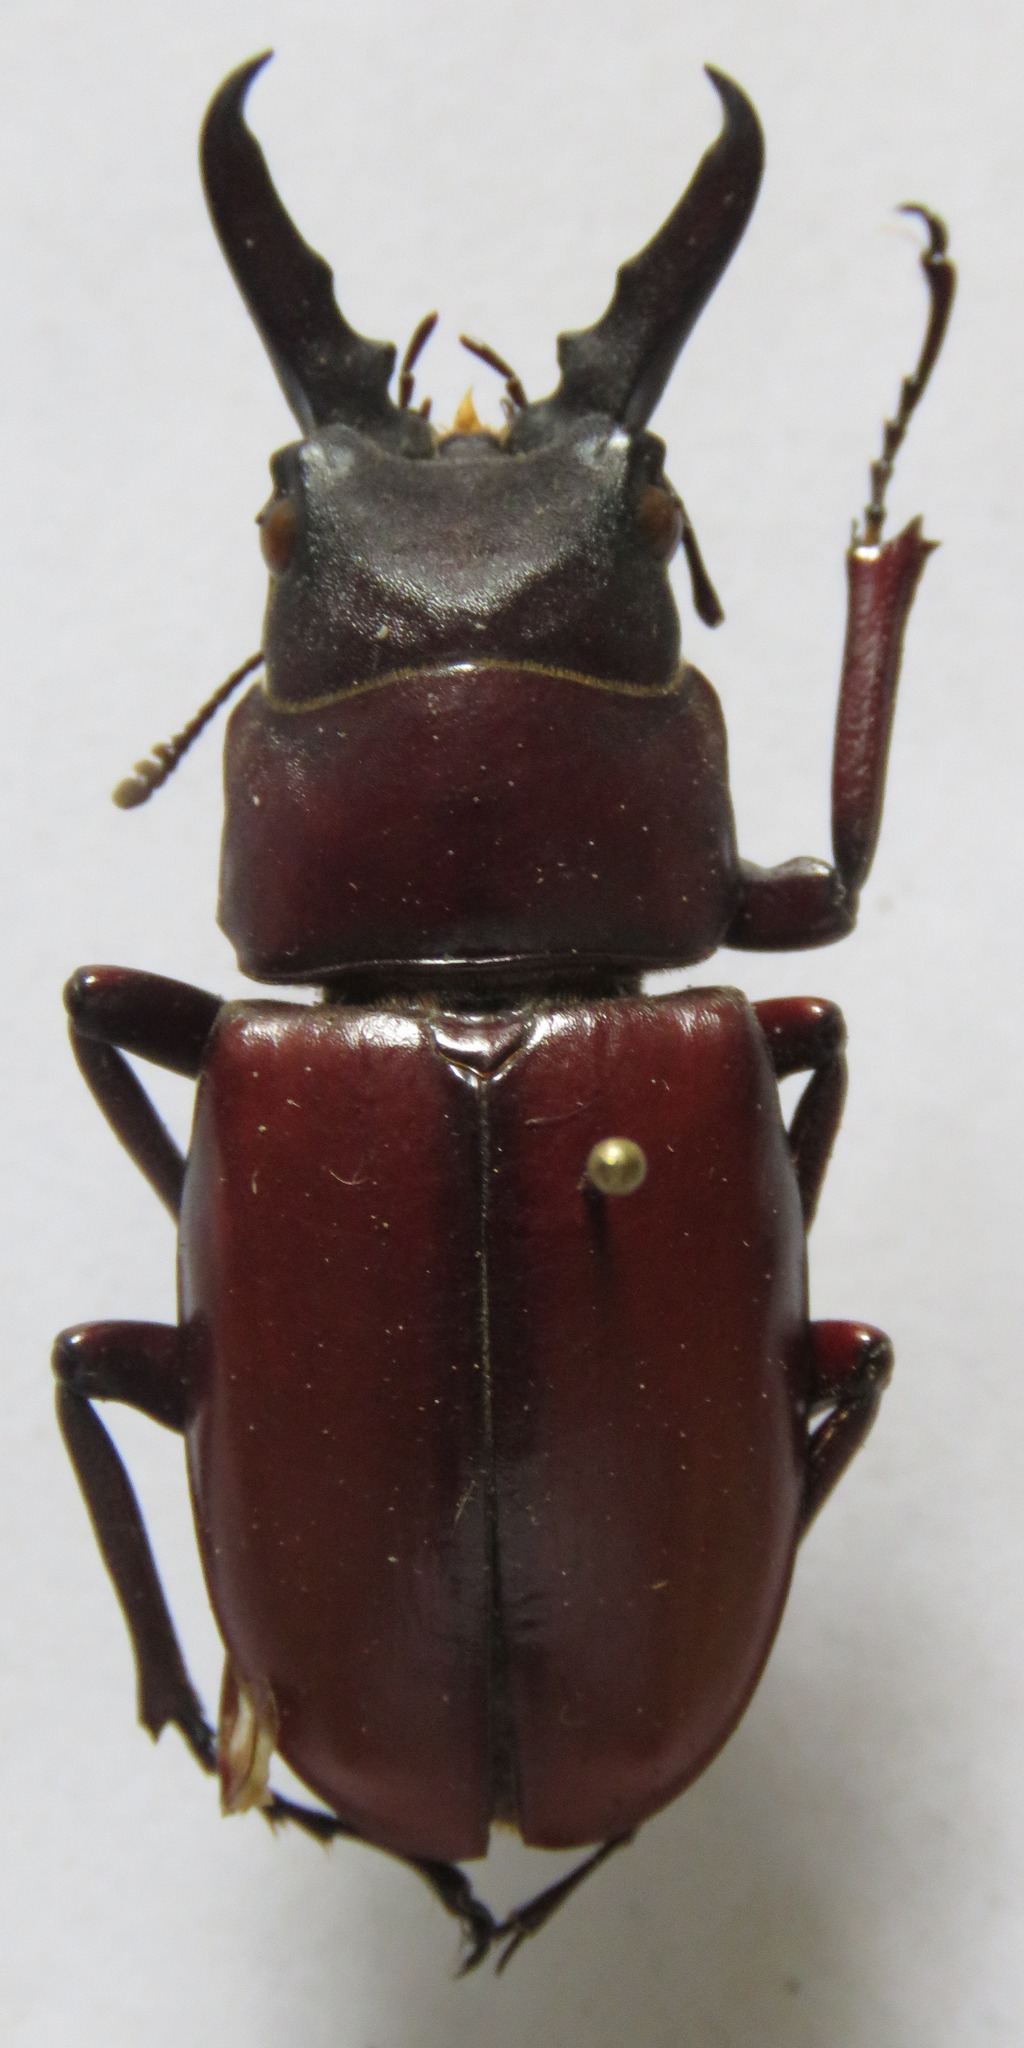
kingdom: Animalia
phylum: Arthropoda
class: Insecta
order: Coleoptera
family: Lucanidae
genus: Prosopocoilus
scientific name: Prosopocoilus myrmecoleon
